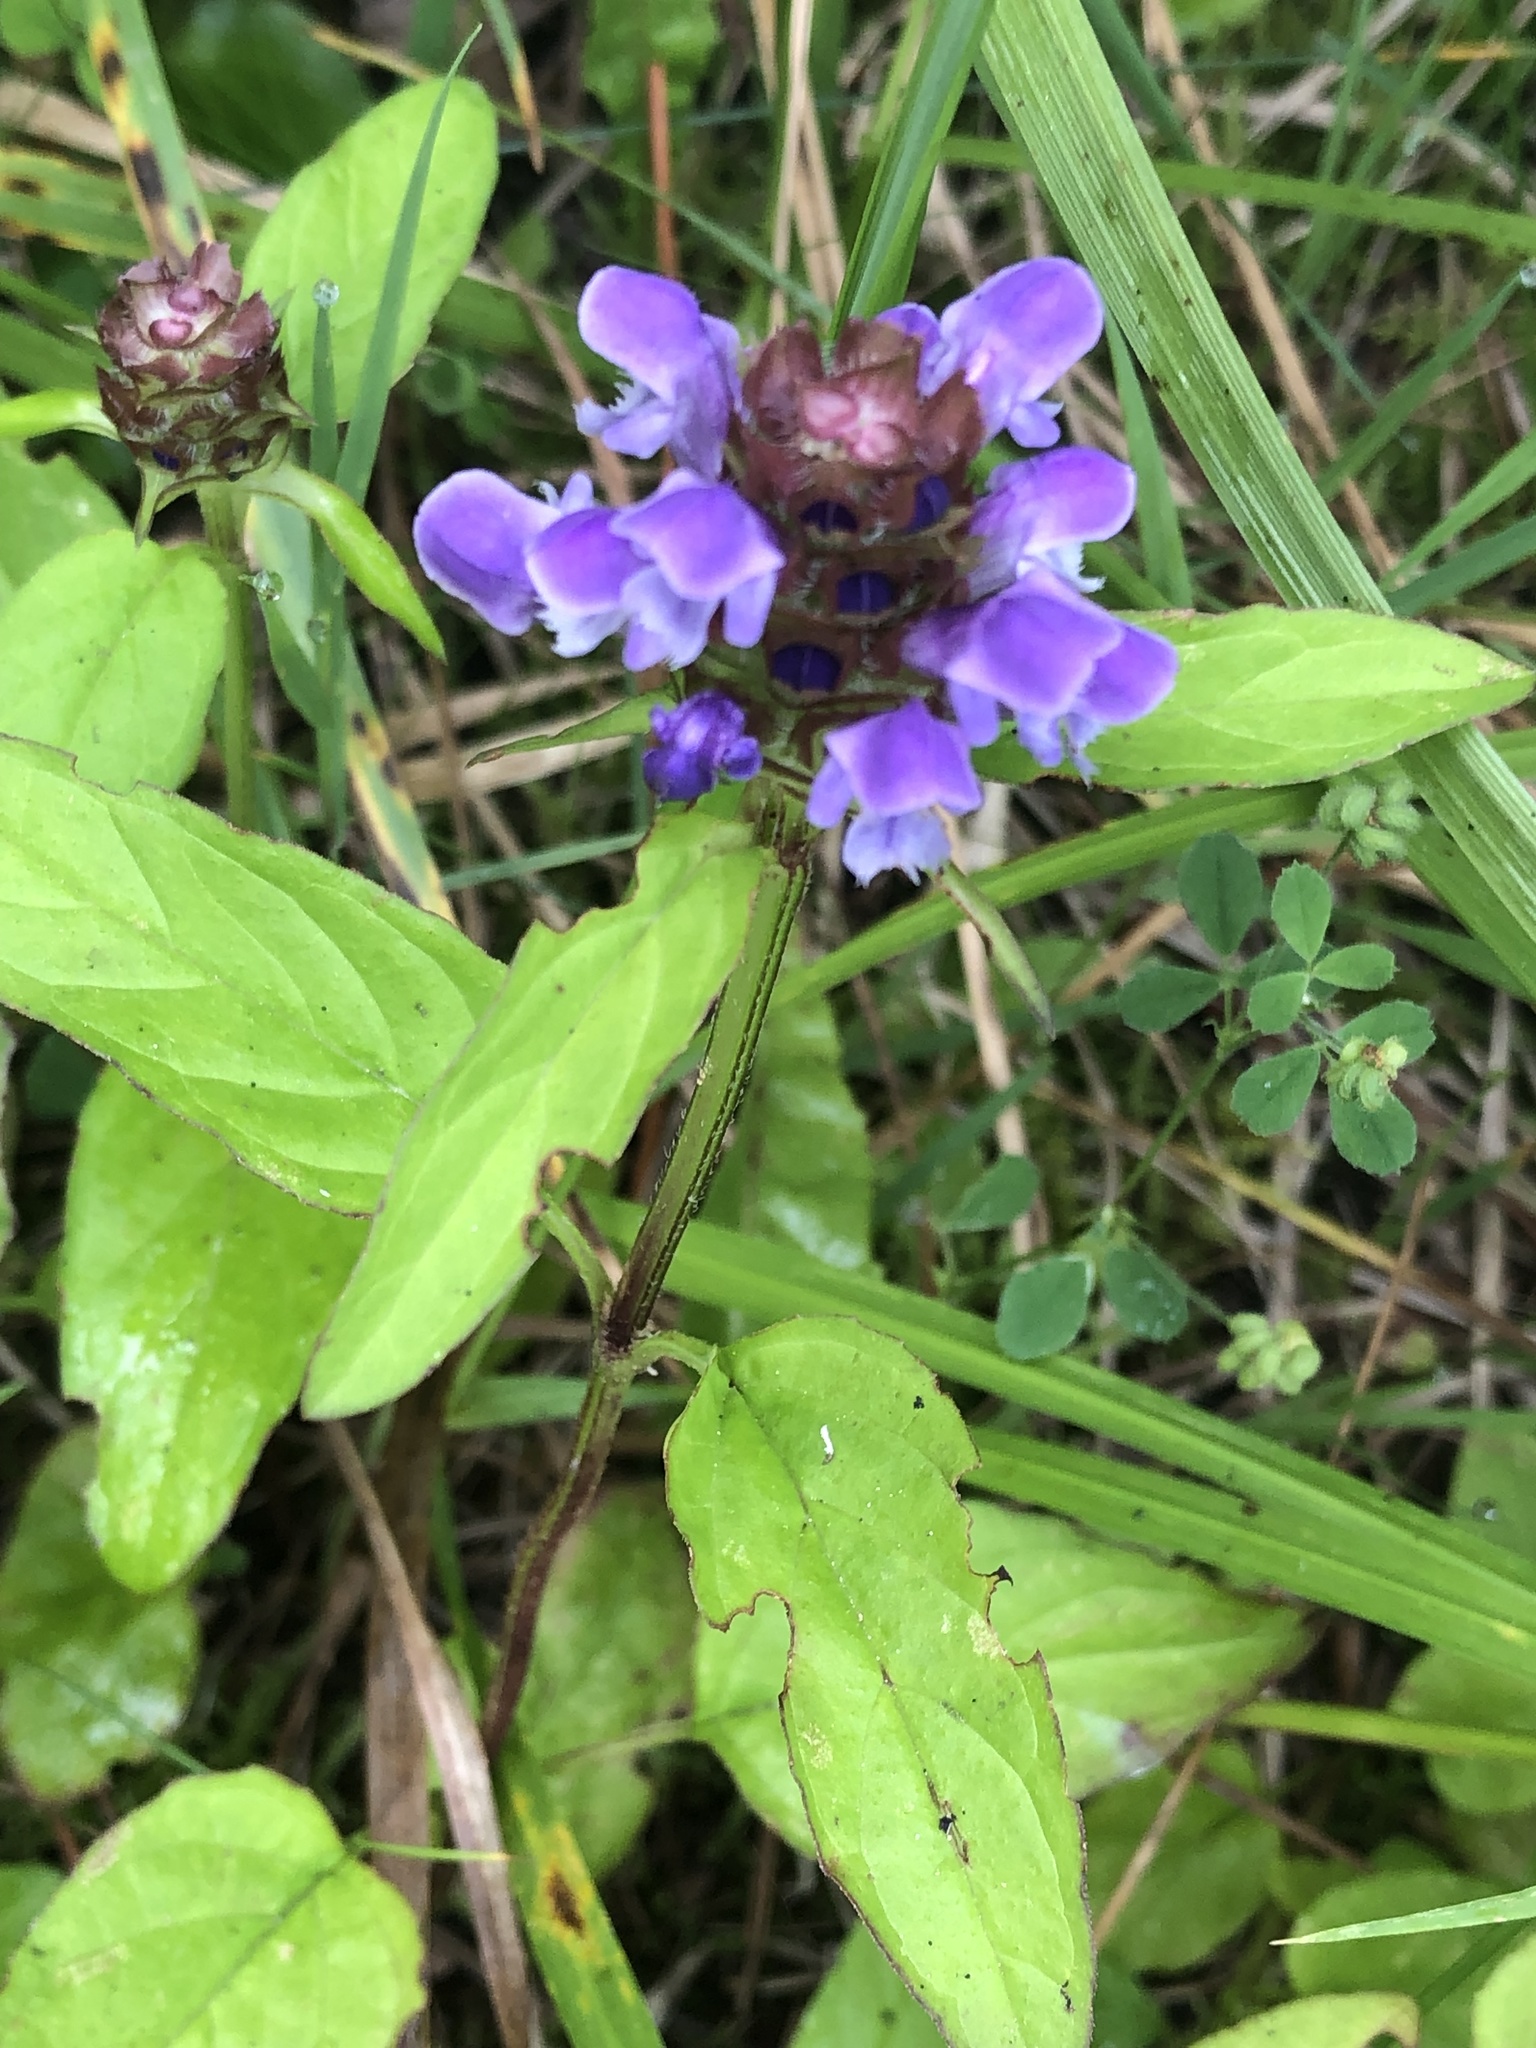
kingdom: Plantae
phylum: Tracheophyta
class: Magnoliopsida
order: Lamiales
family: Lamiaceae
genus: Prunella
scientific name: Prunella vulgaris
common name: Heal-all
